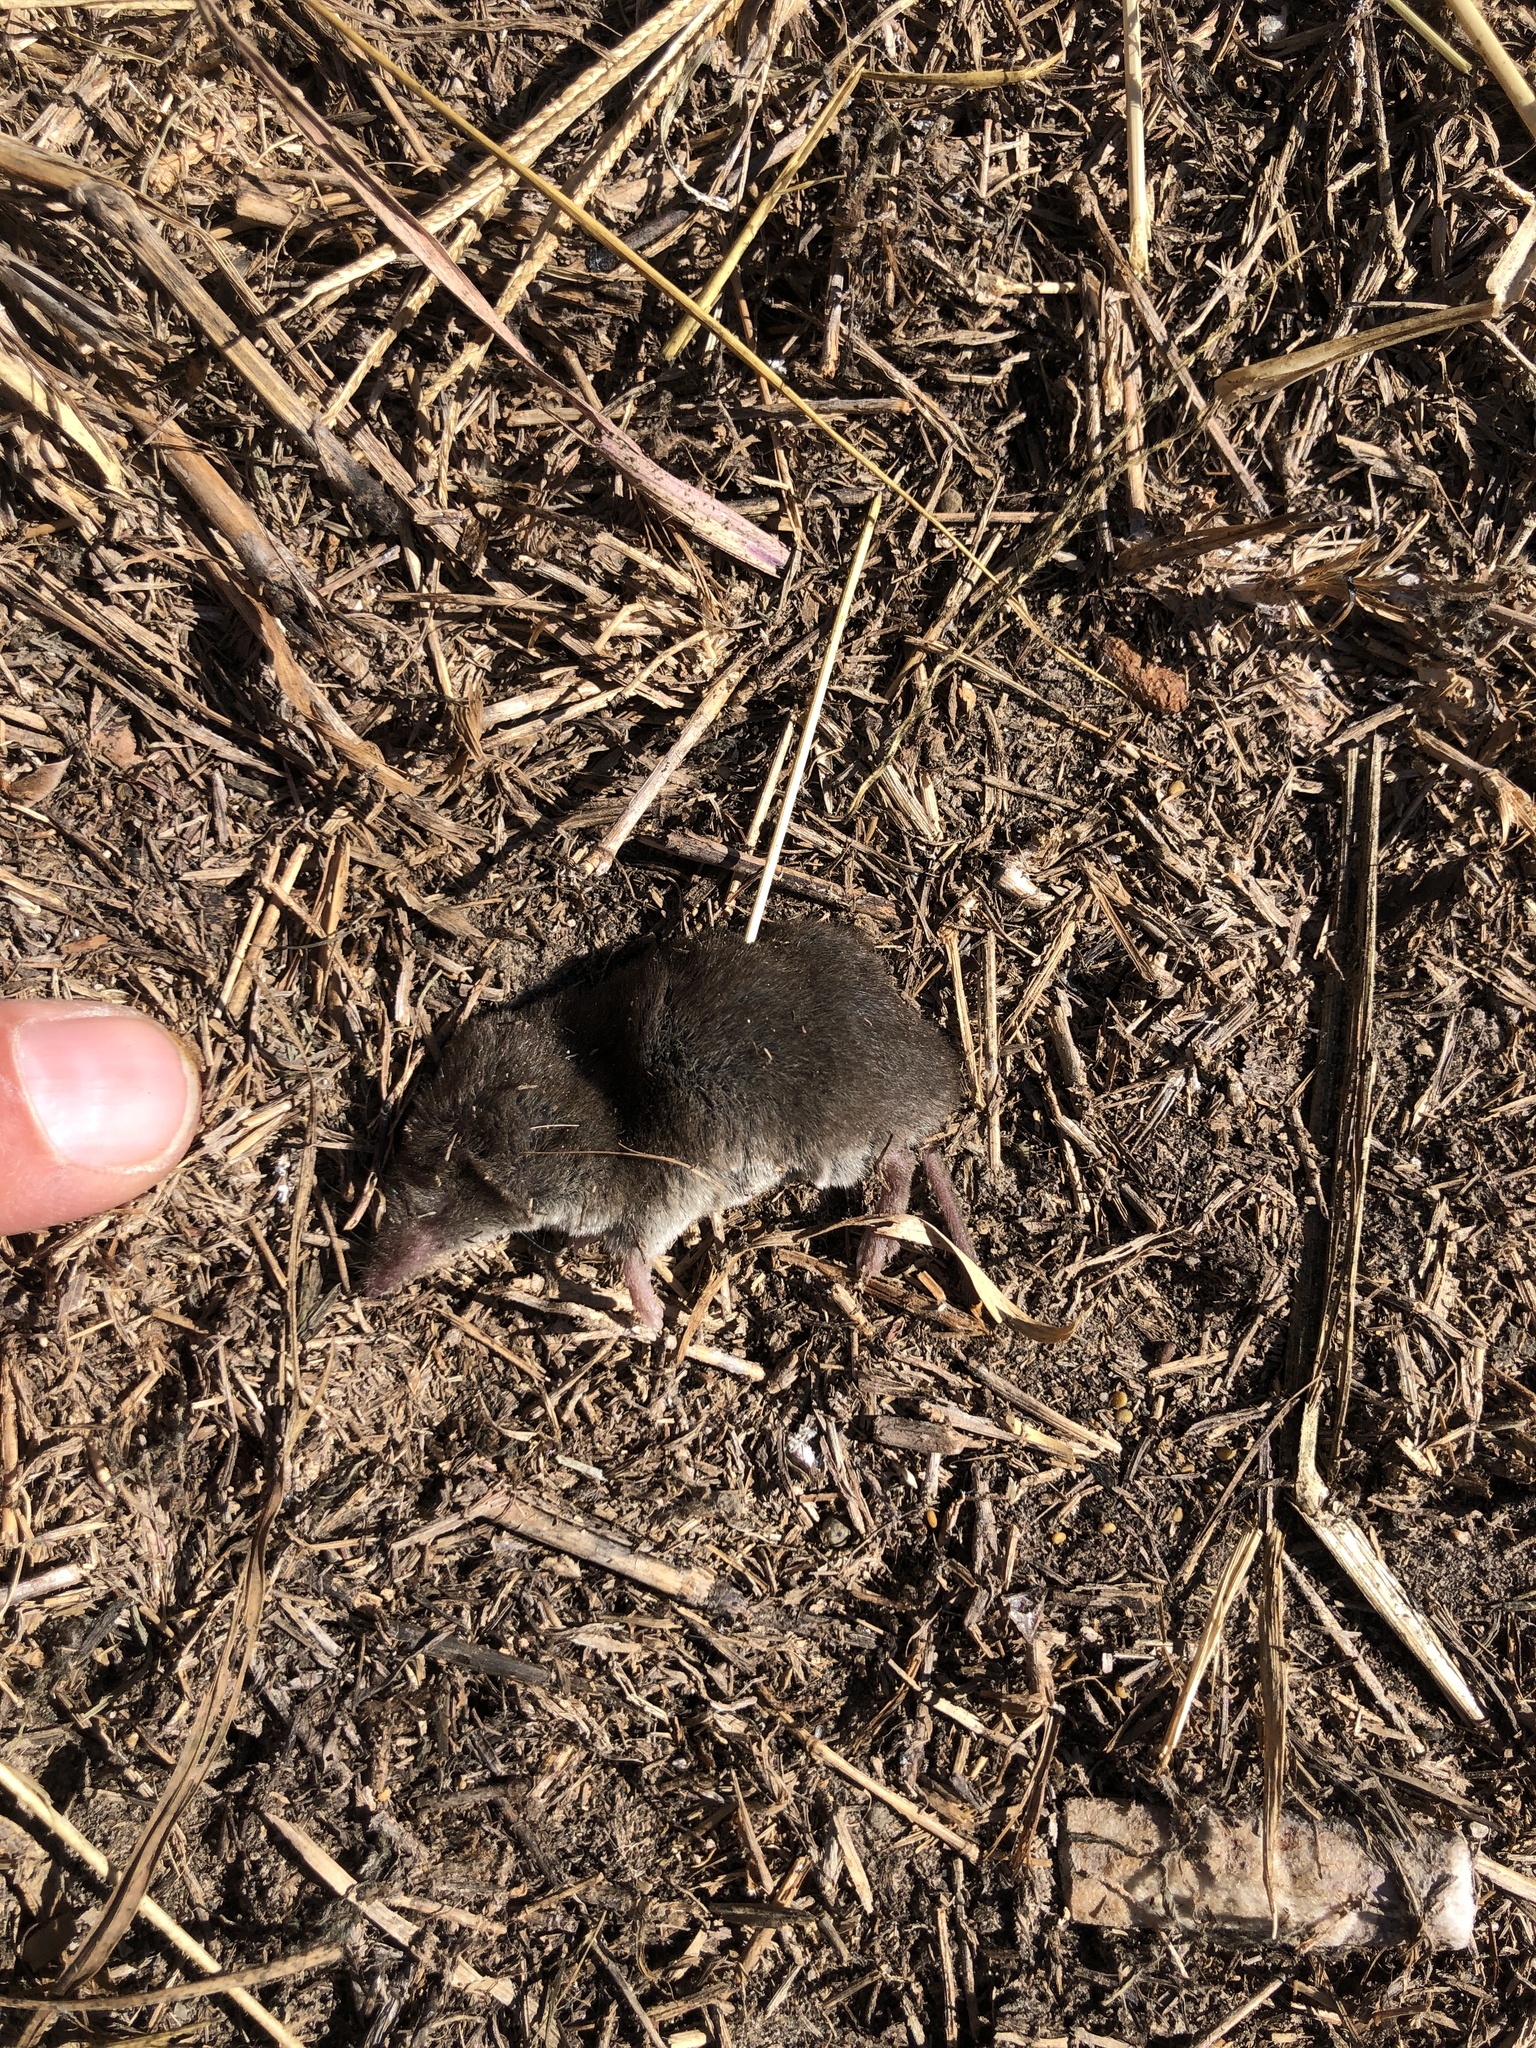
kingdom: Animalia
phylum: Chordata
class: Mammalia
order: Soricomorpha
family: Soricidae
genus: Cryptotis
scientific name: Cryptotis parva
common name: North american least shrew
